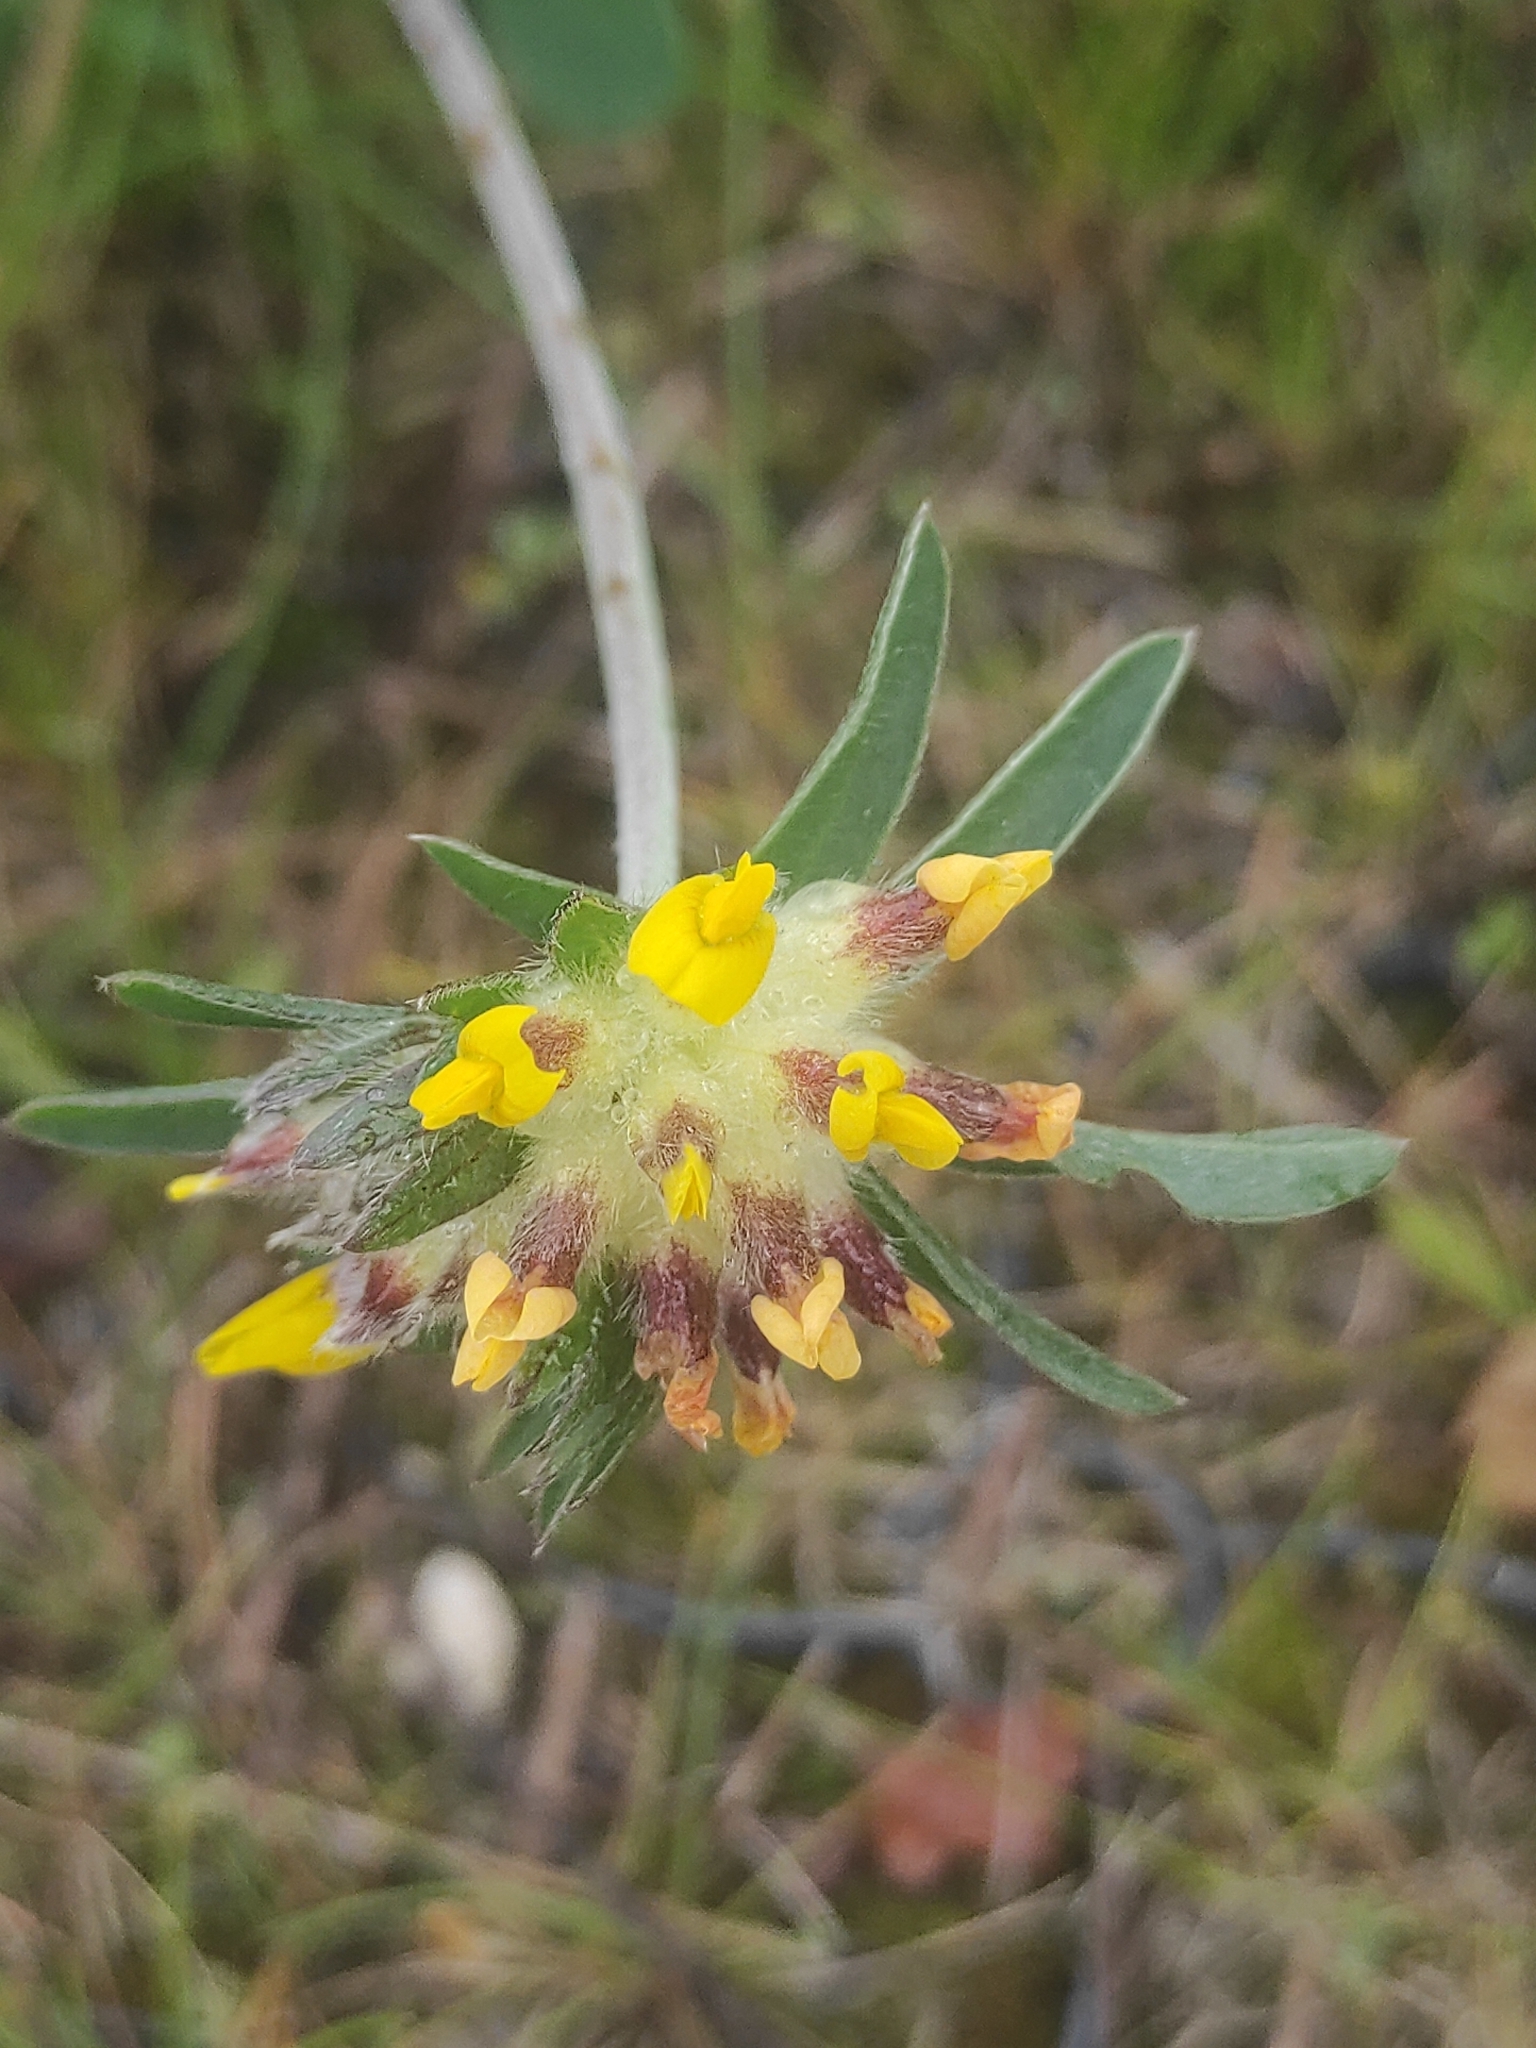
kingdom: Plantae
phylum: Tracheophyta
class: Magnoliopsida
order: Fabales
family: Fabaceae
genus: Anthyllis
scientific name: Anthyllis vulneraria
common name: Kidney vetch
